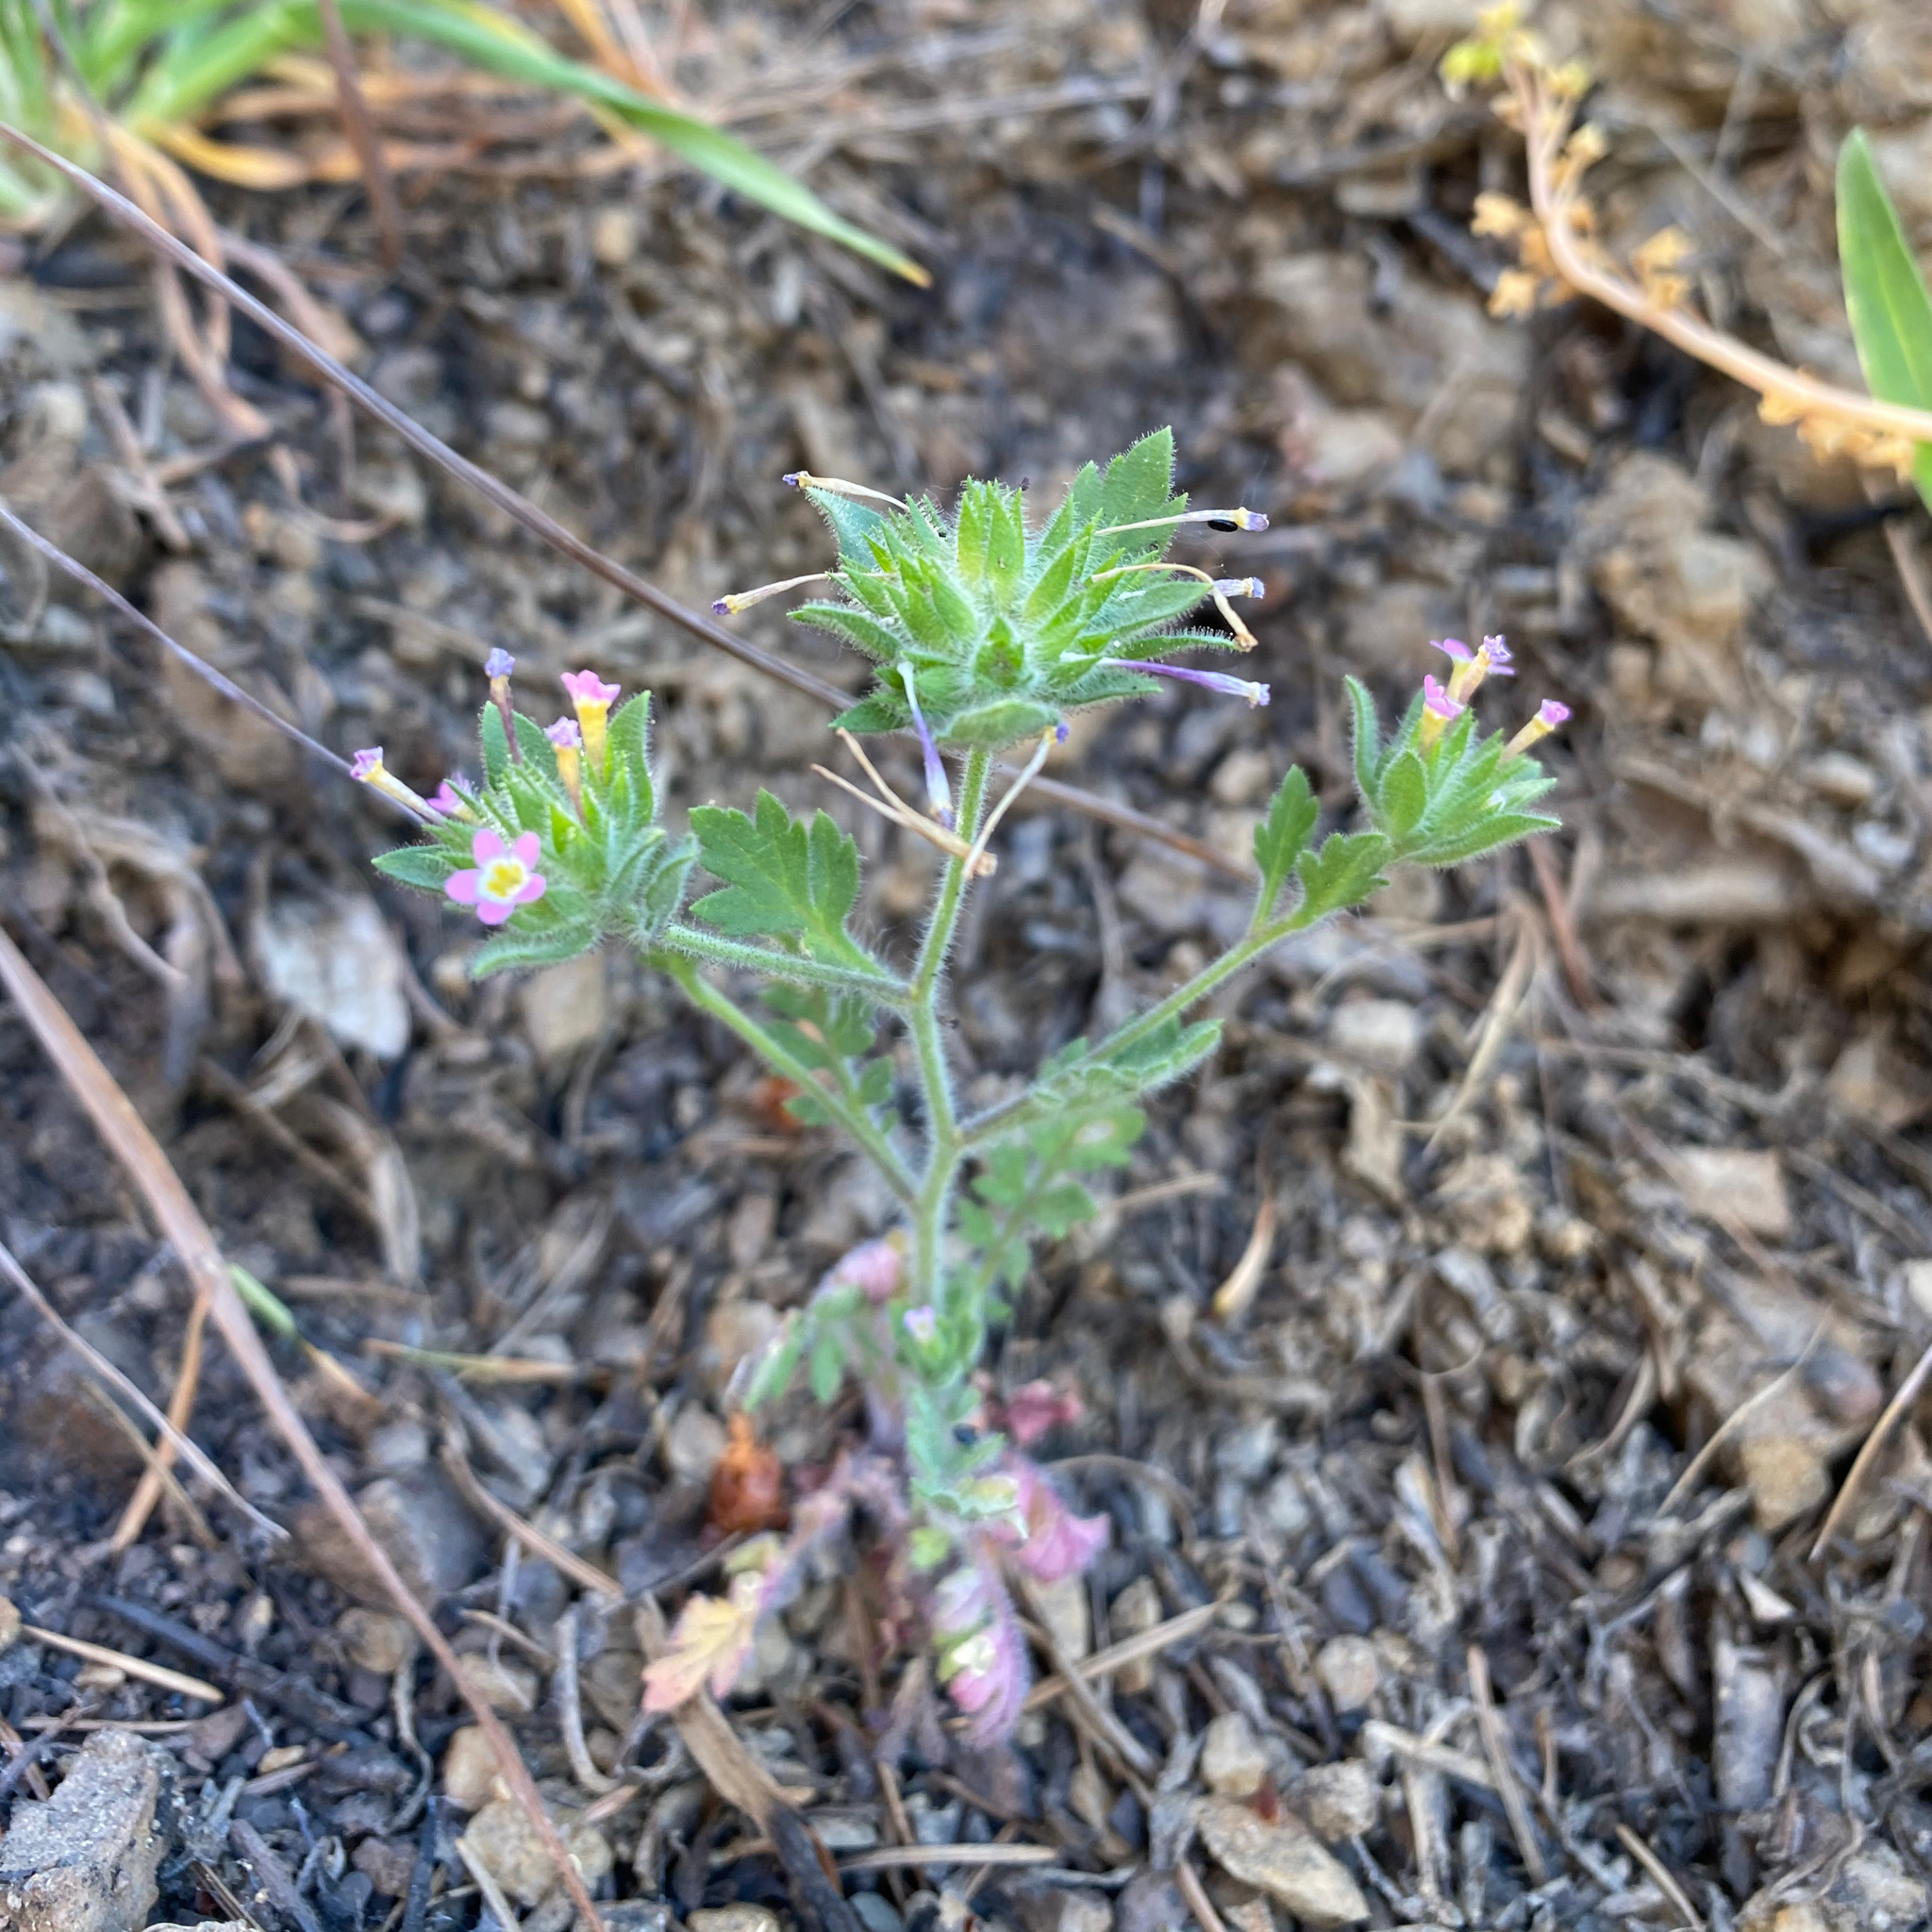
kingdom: Plantae
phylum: Tracheophyta
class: Magnoliopsida
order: Ericales
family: Polemoniaceae
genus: Collomia
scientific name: Collomia heterophylla
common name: Variable-leaved collomia
